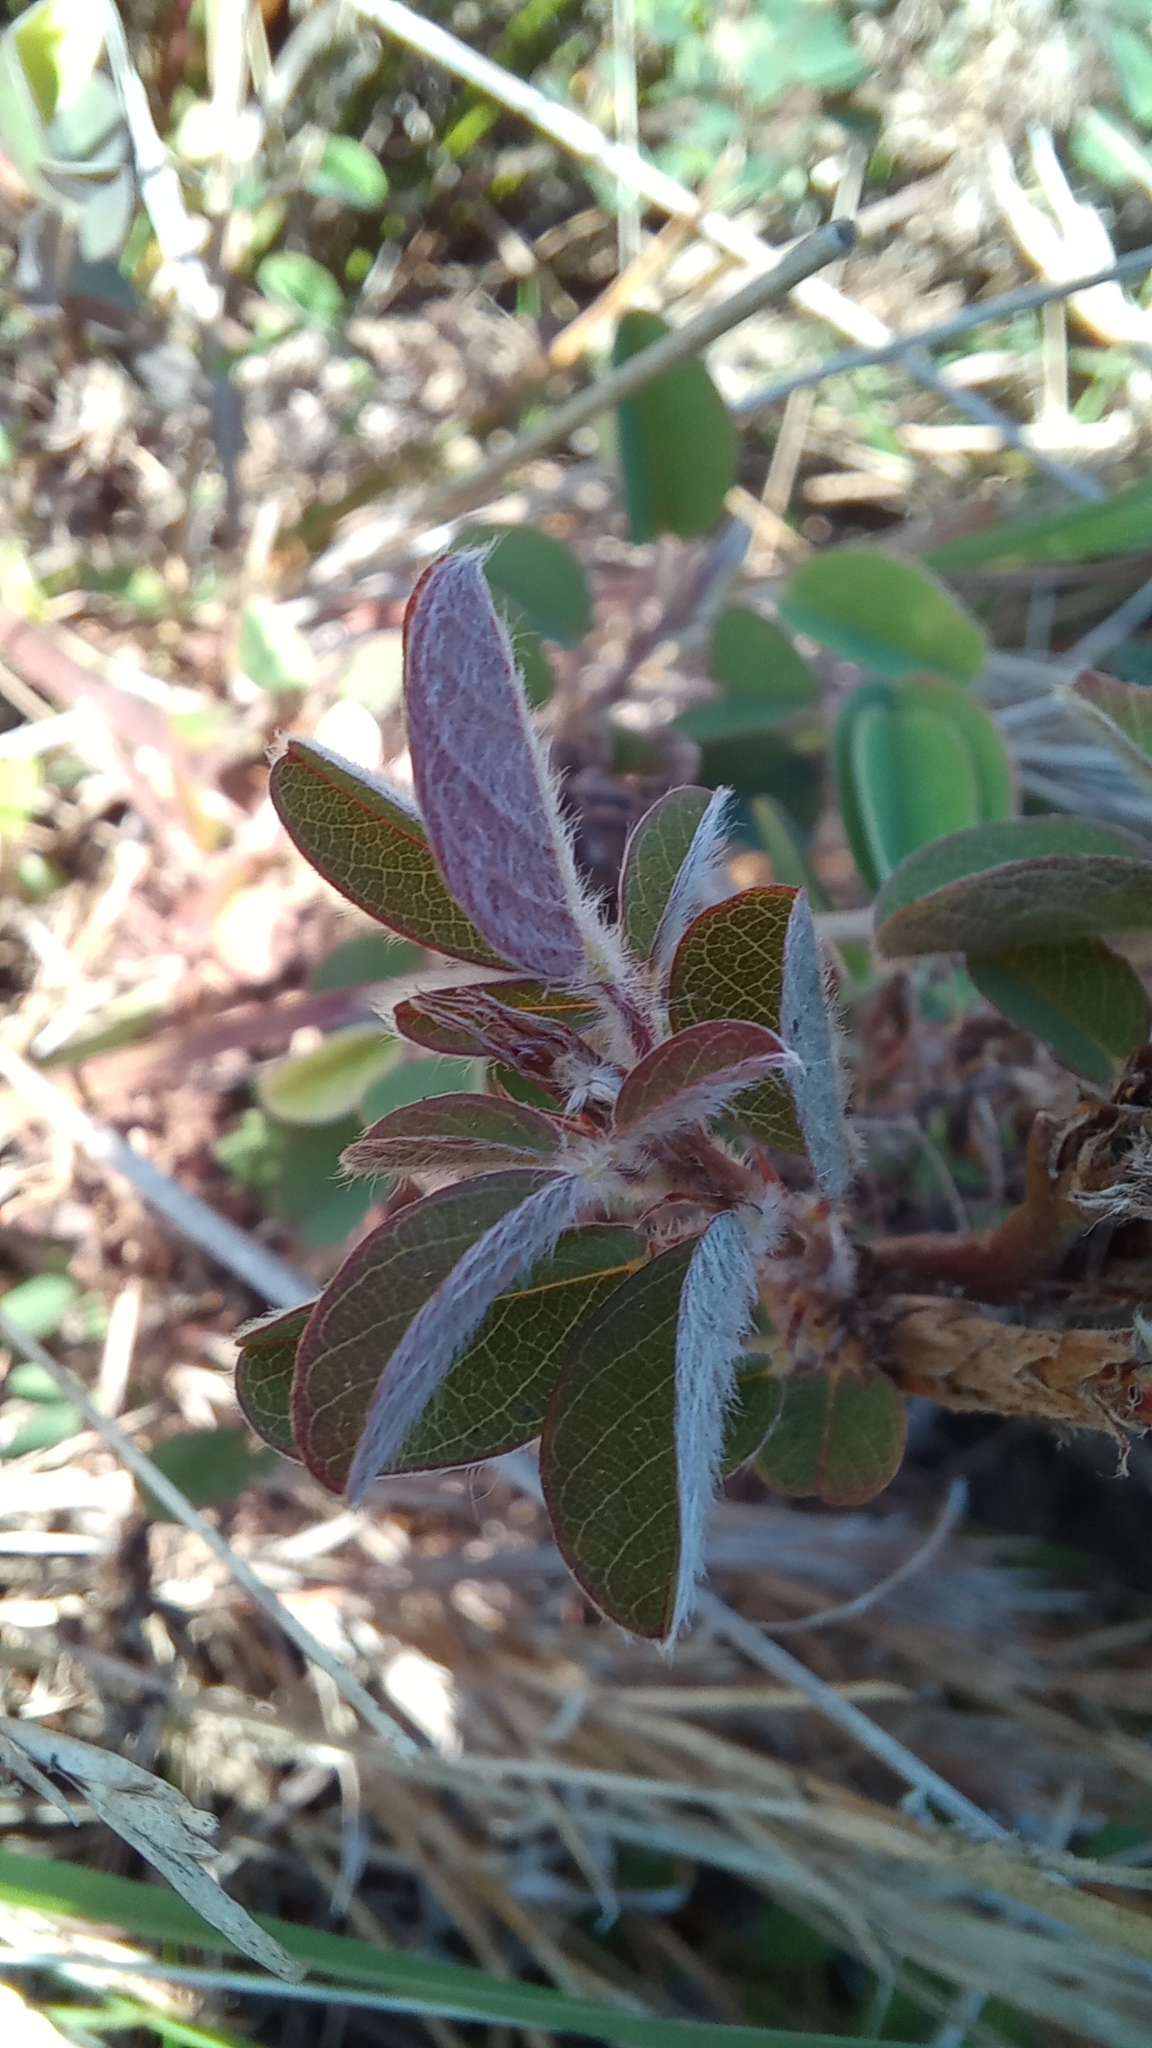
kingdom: Plantae
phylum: Tracheophyta
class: Magnoliopsida
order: Fabales
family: Fabaceae
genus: Grona
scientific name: Grona barbata
